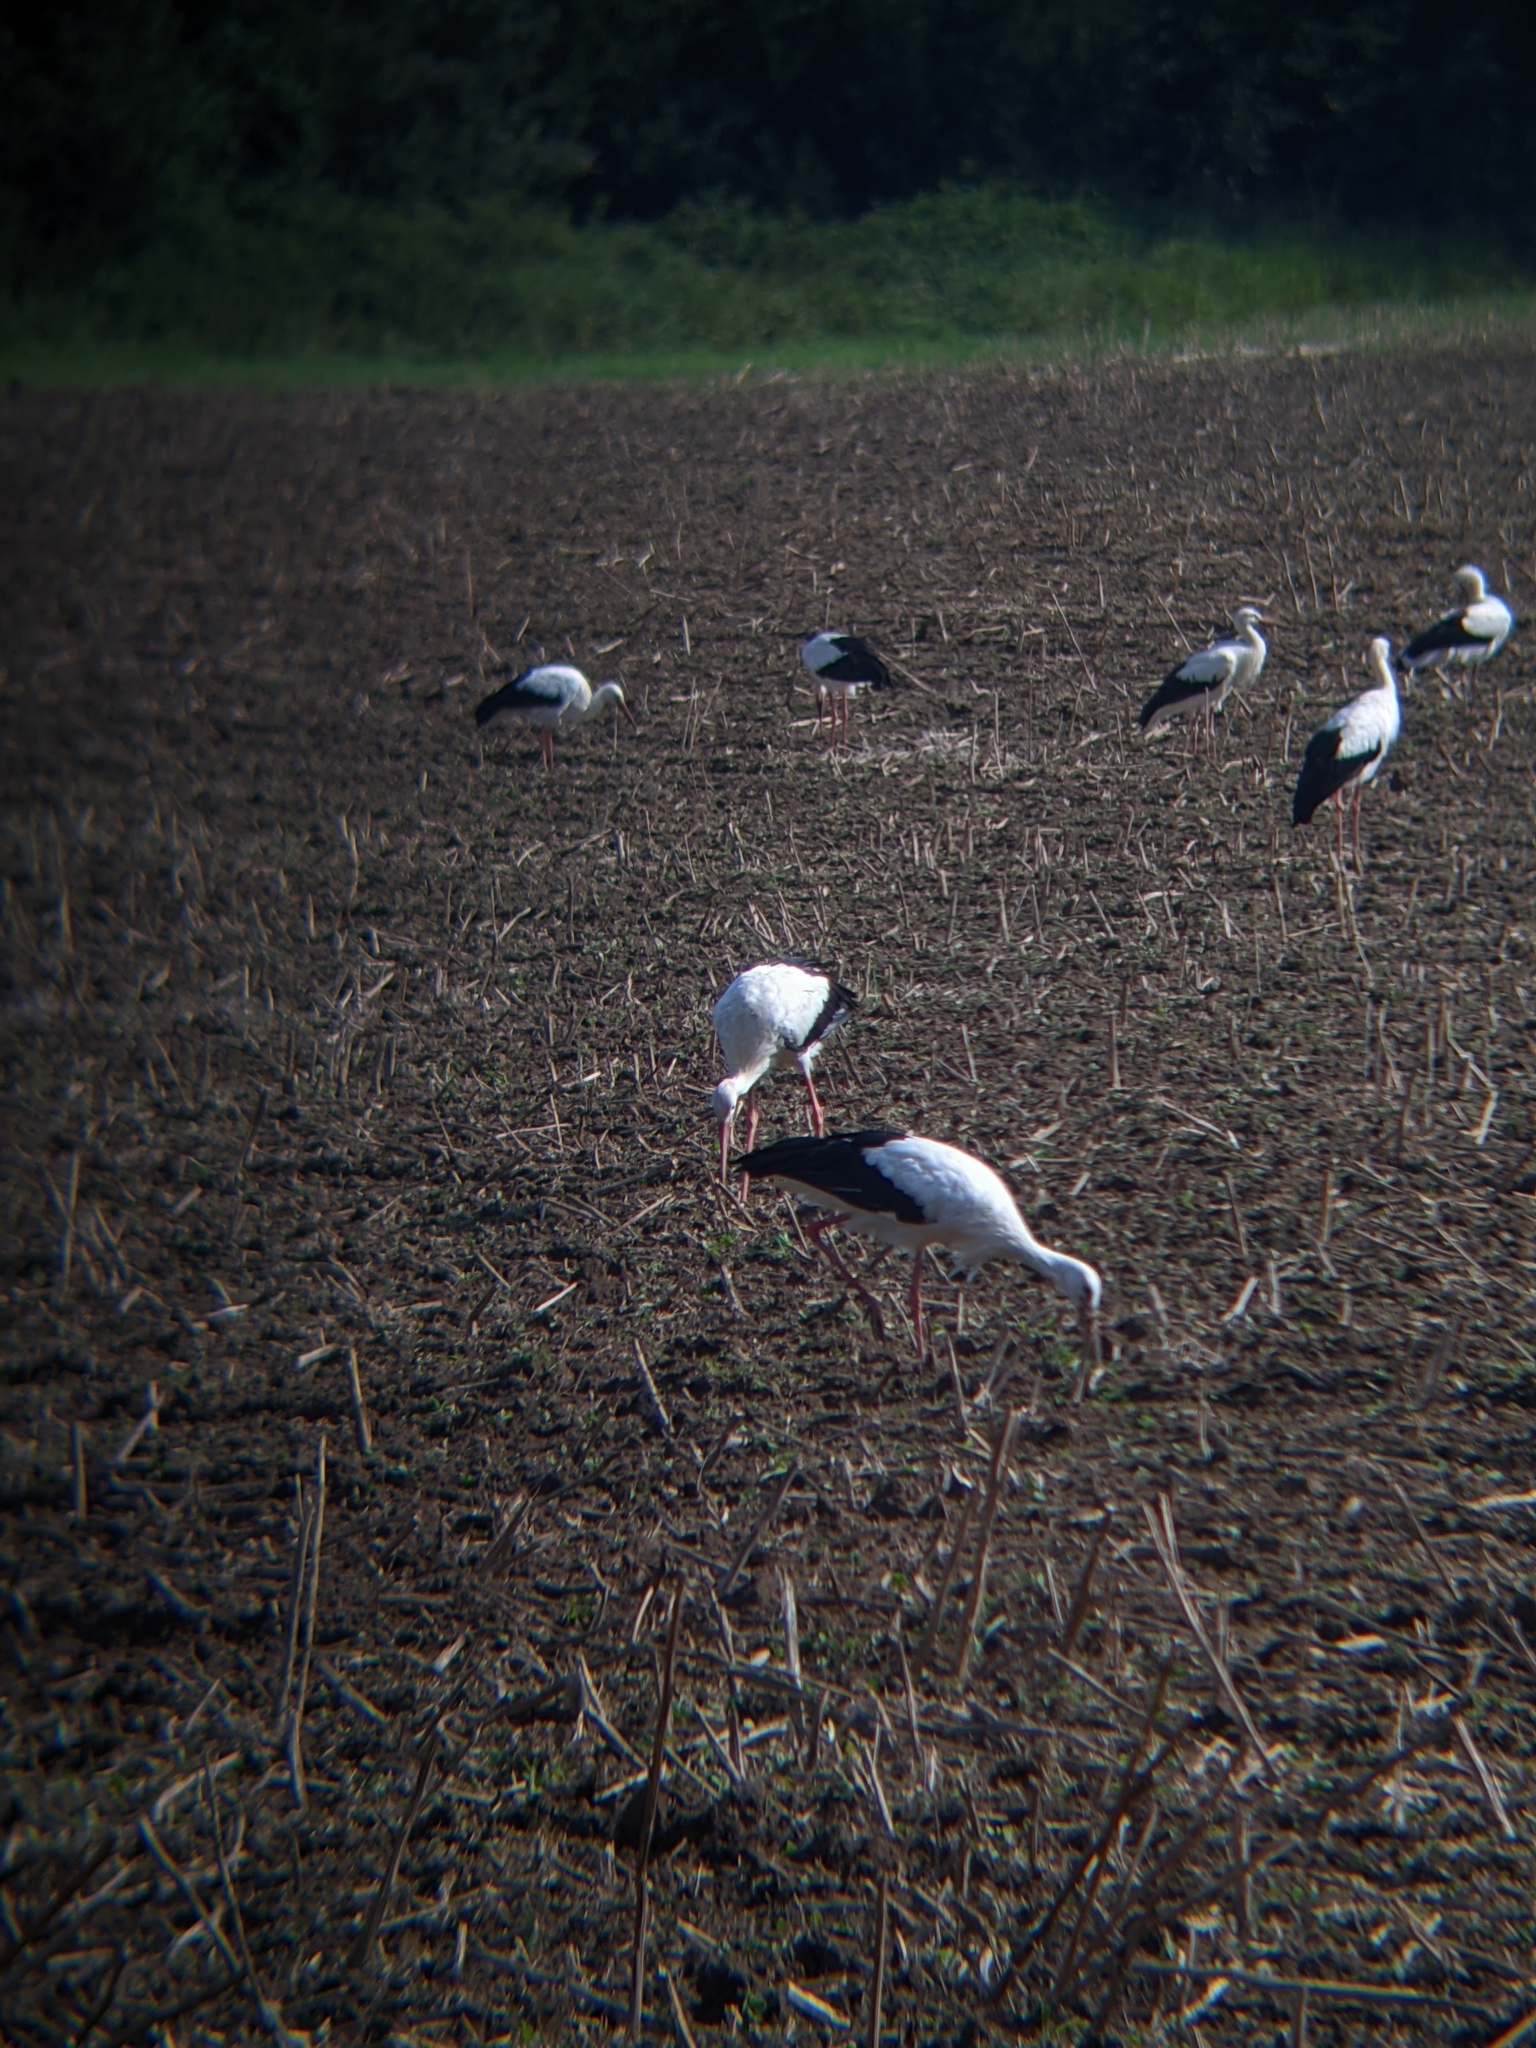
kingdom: Animalia
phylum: Chordata
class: Aves
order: Ciconiiformes
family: Ciconiidae
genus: Ciconia
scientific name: Ciconia ciconia
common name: White stork
